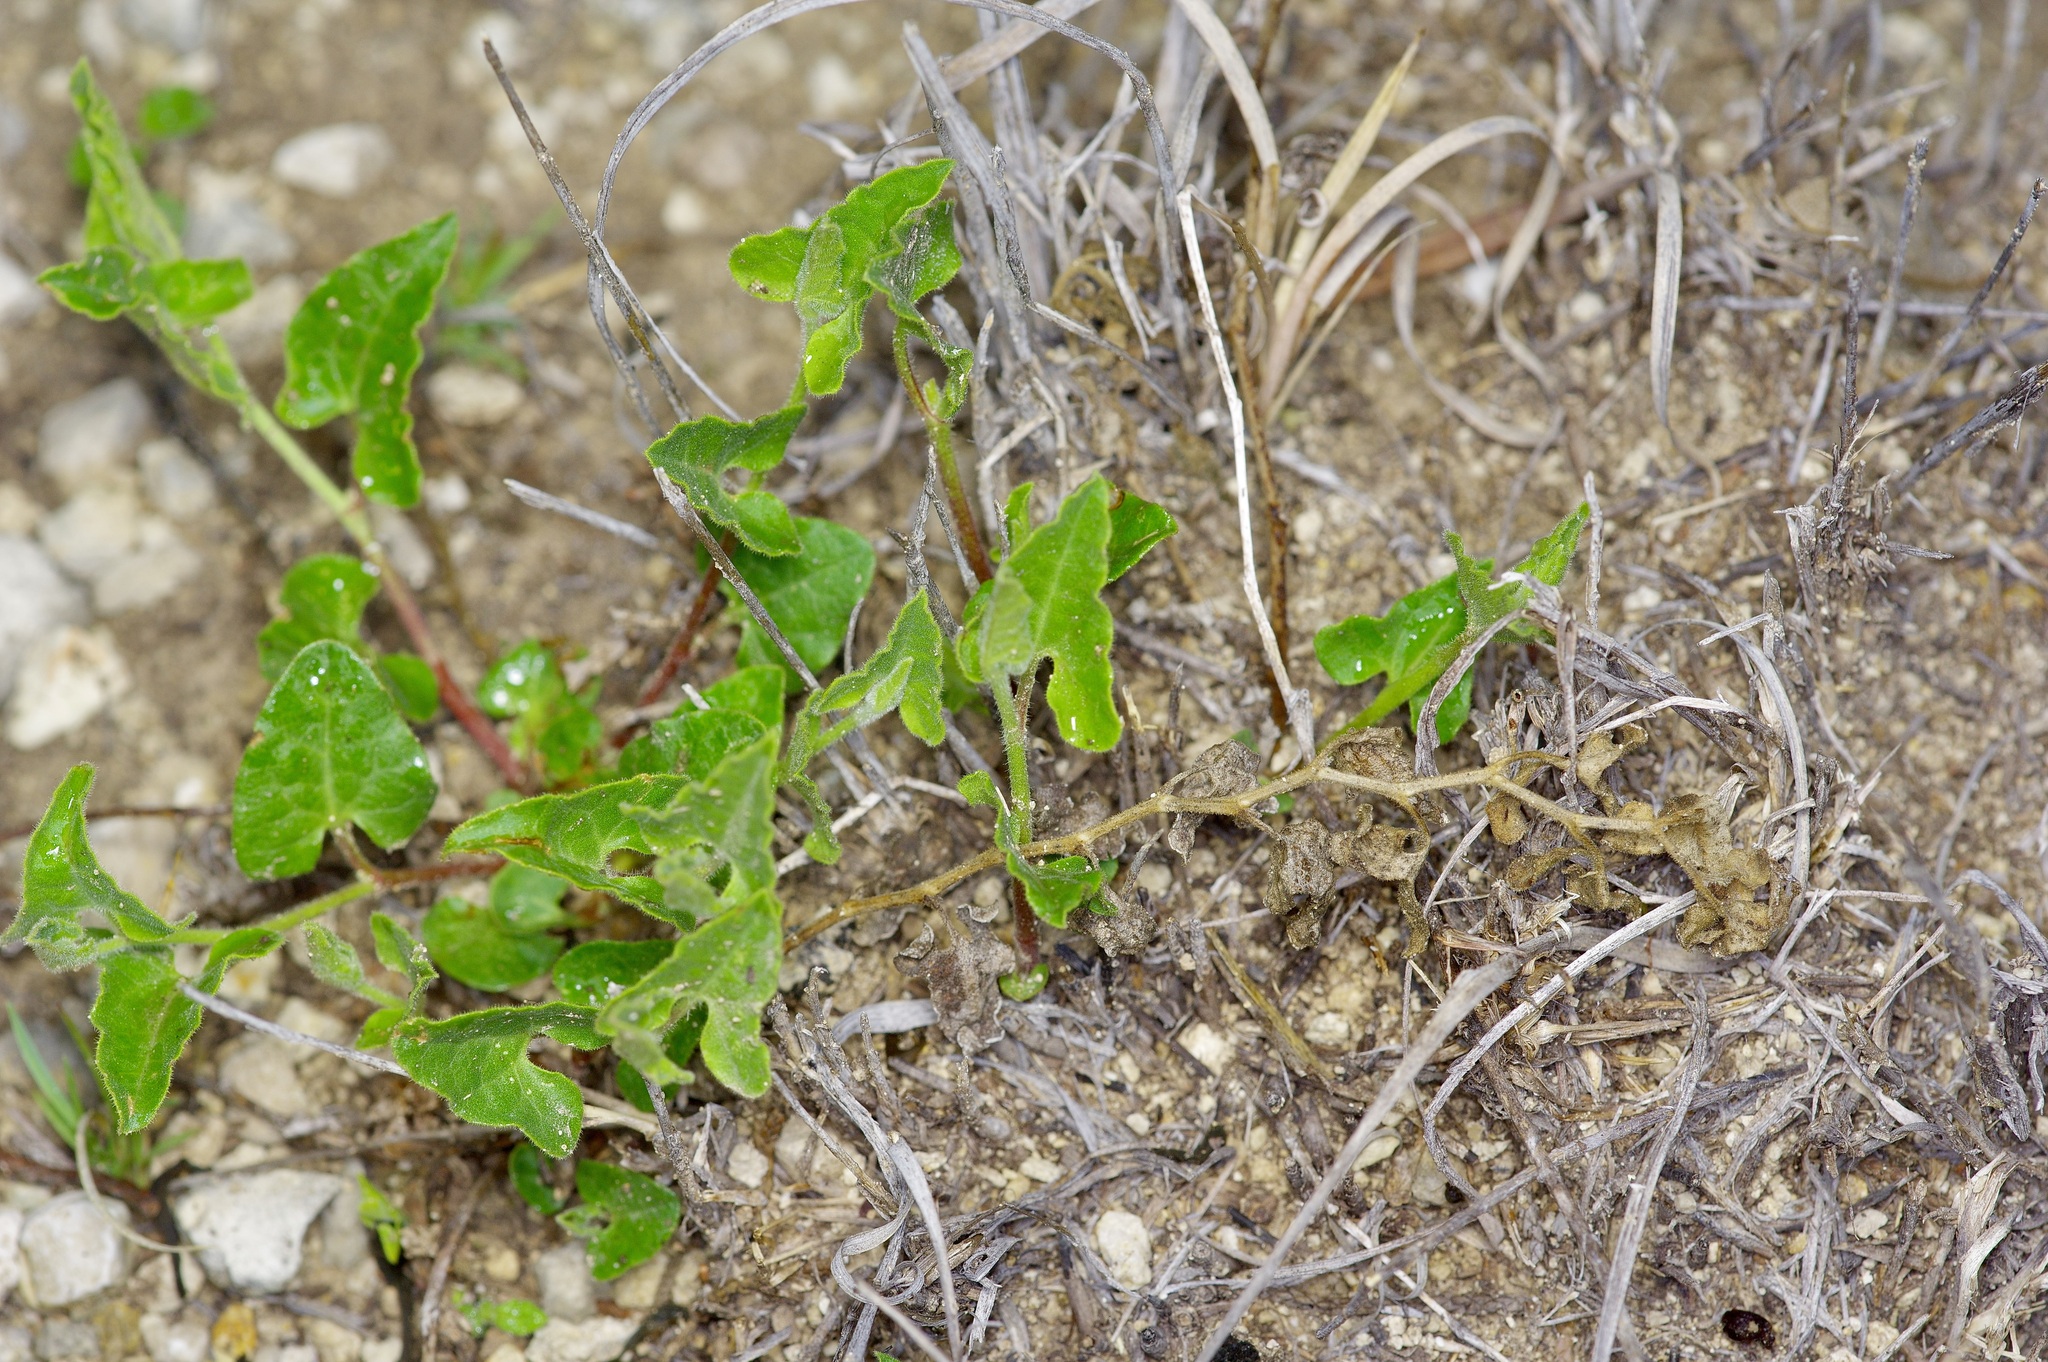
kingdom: Plantae
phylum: Tracheophyta
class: Magnoliopsida
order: Piperales
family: Aristolochiaceae
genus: Aristolochia
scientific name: Aristolochia coryi
